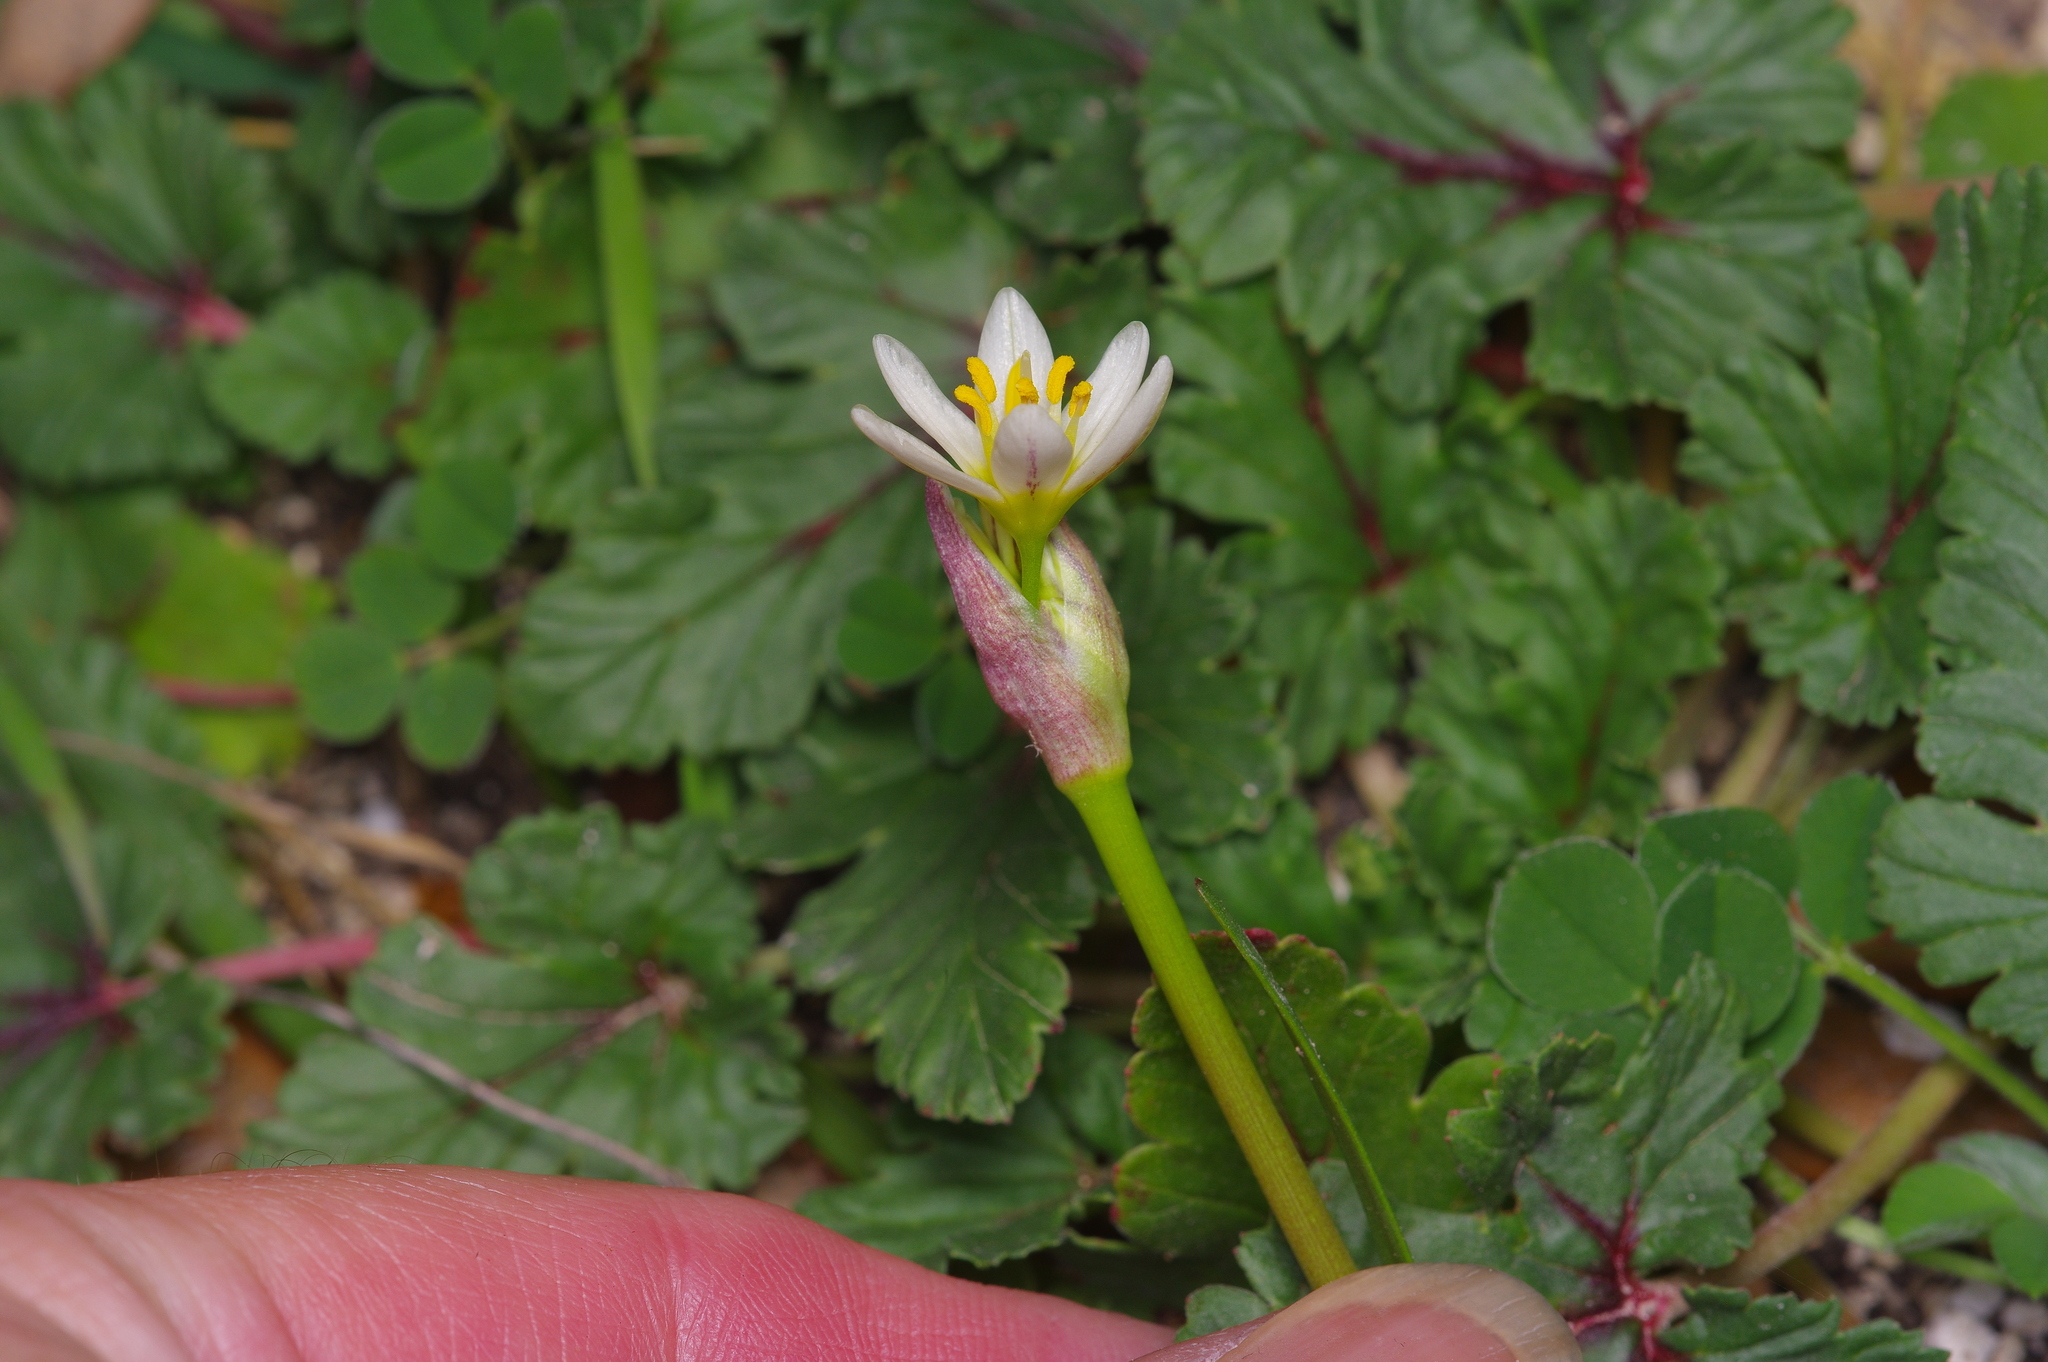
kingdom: Plantae
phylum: Tracheophyta
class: Liliopsida
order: Asparagales
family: Amaryllidaceae
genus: Nothoscordum
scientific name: Nothoscordum bivalve
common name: Crow-poison
